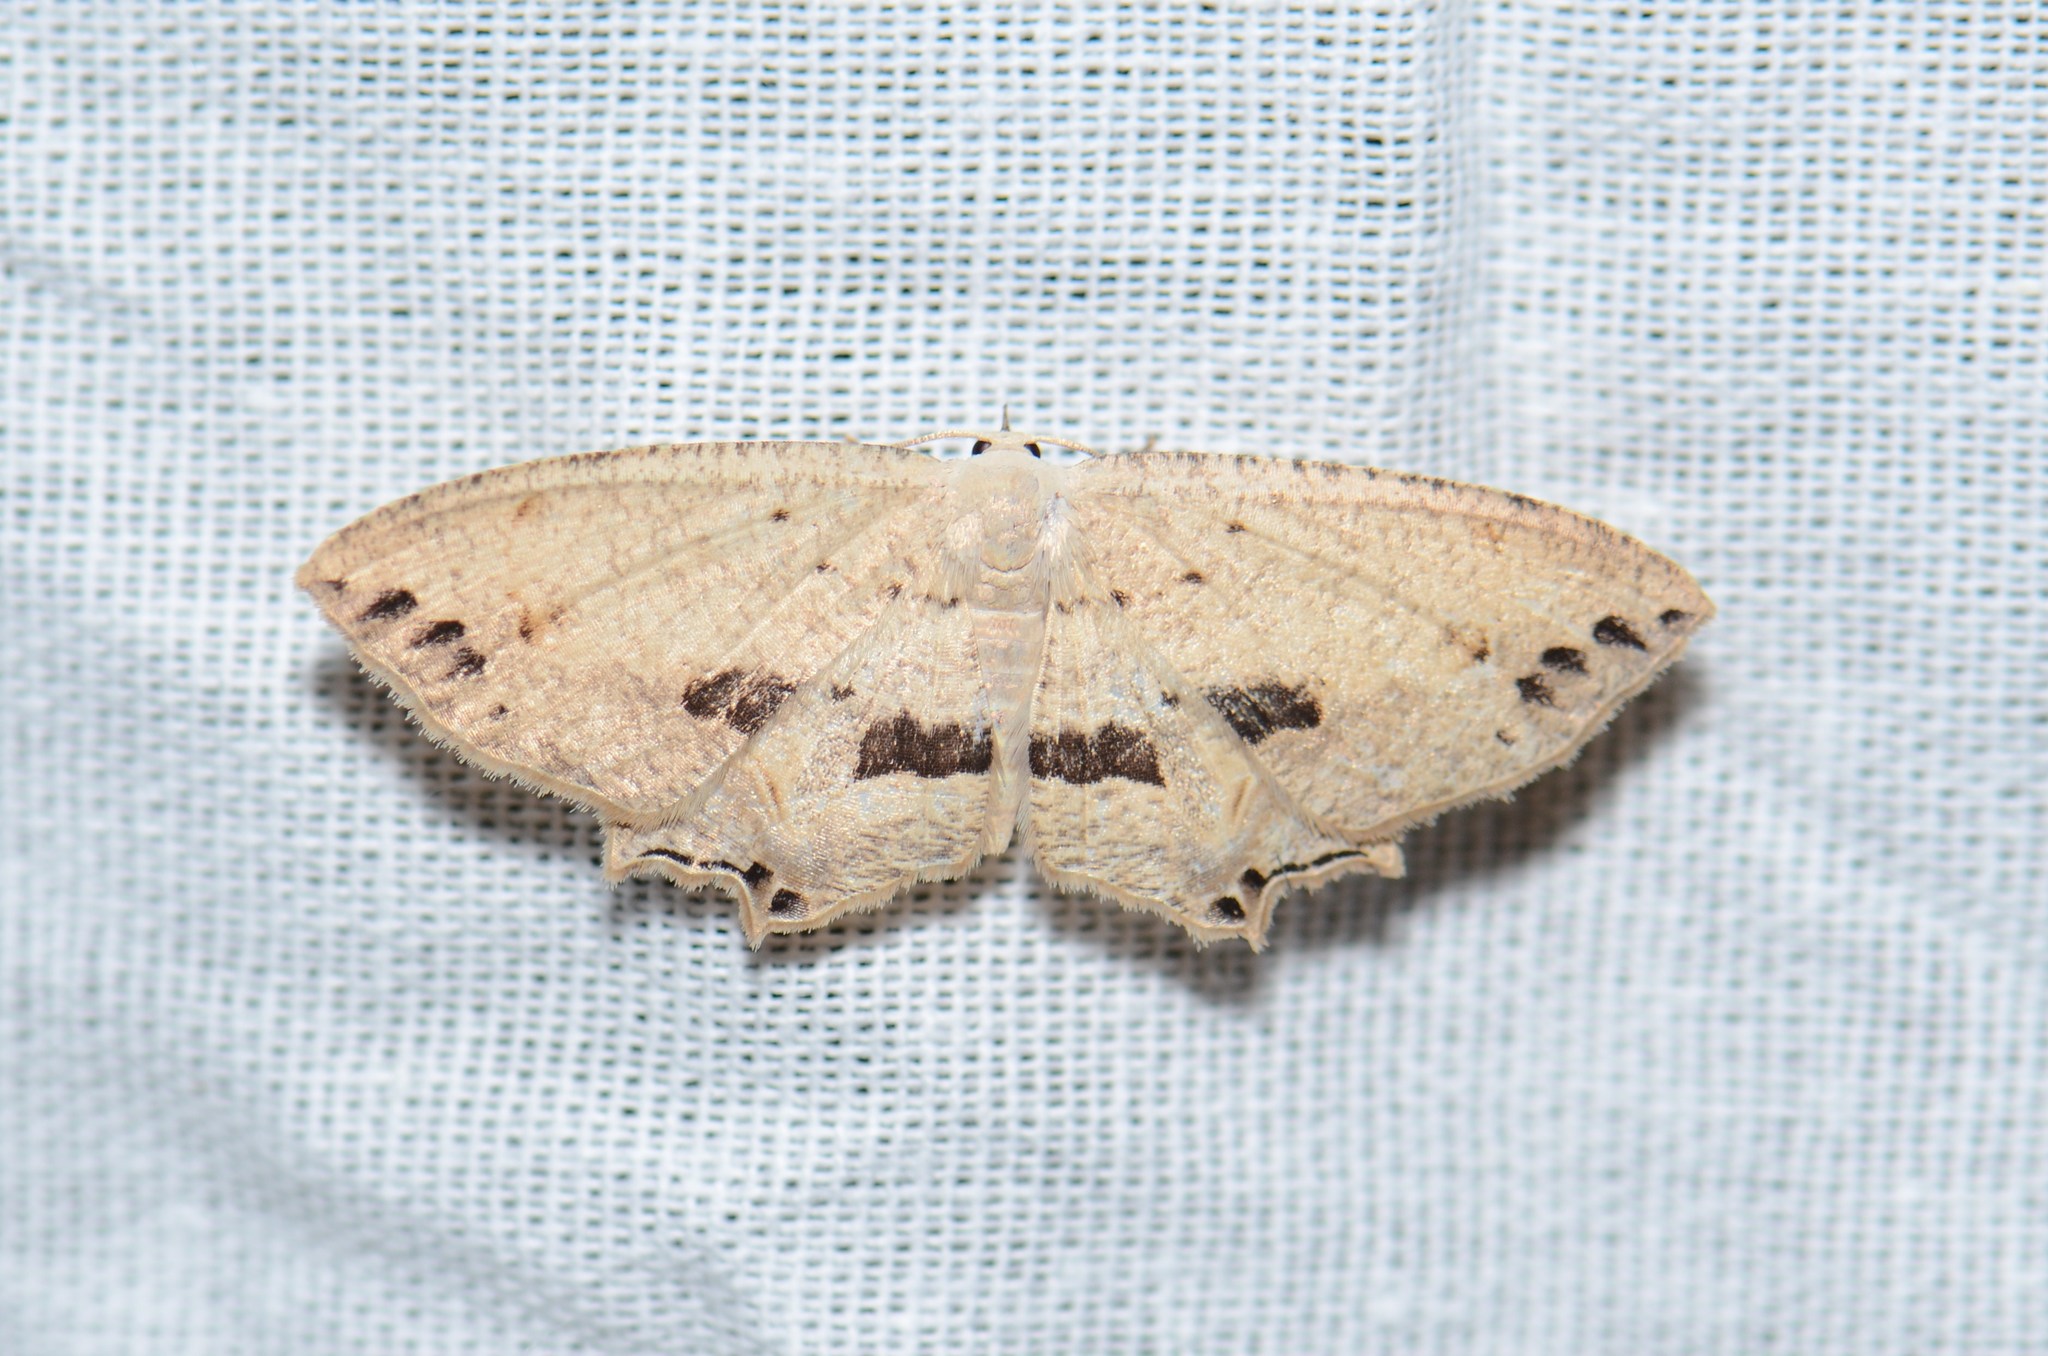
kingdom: Animalia
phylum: Arthropoda
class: Insecta
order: Lepidoptera
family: Uraniidae
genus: Dysaethria
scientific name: Dysaethria punctata
